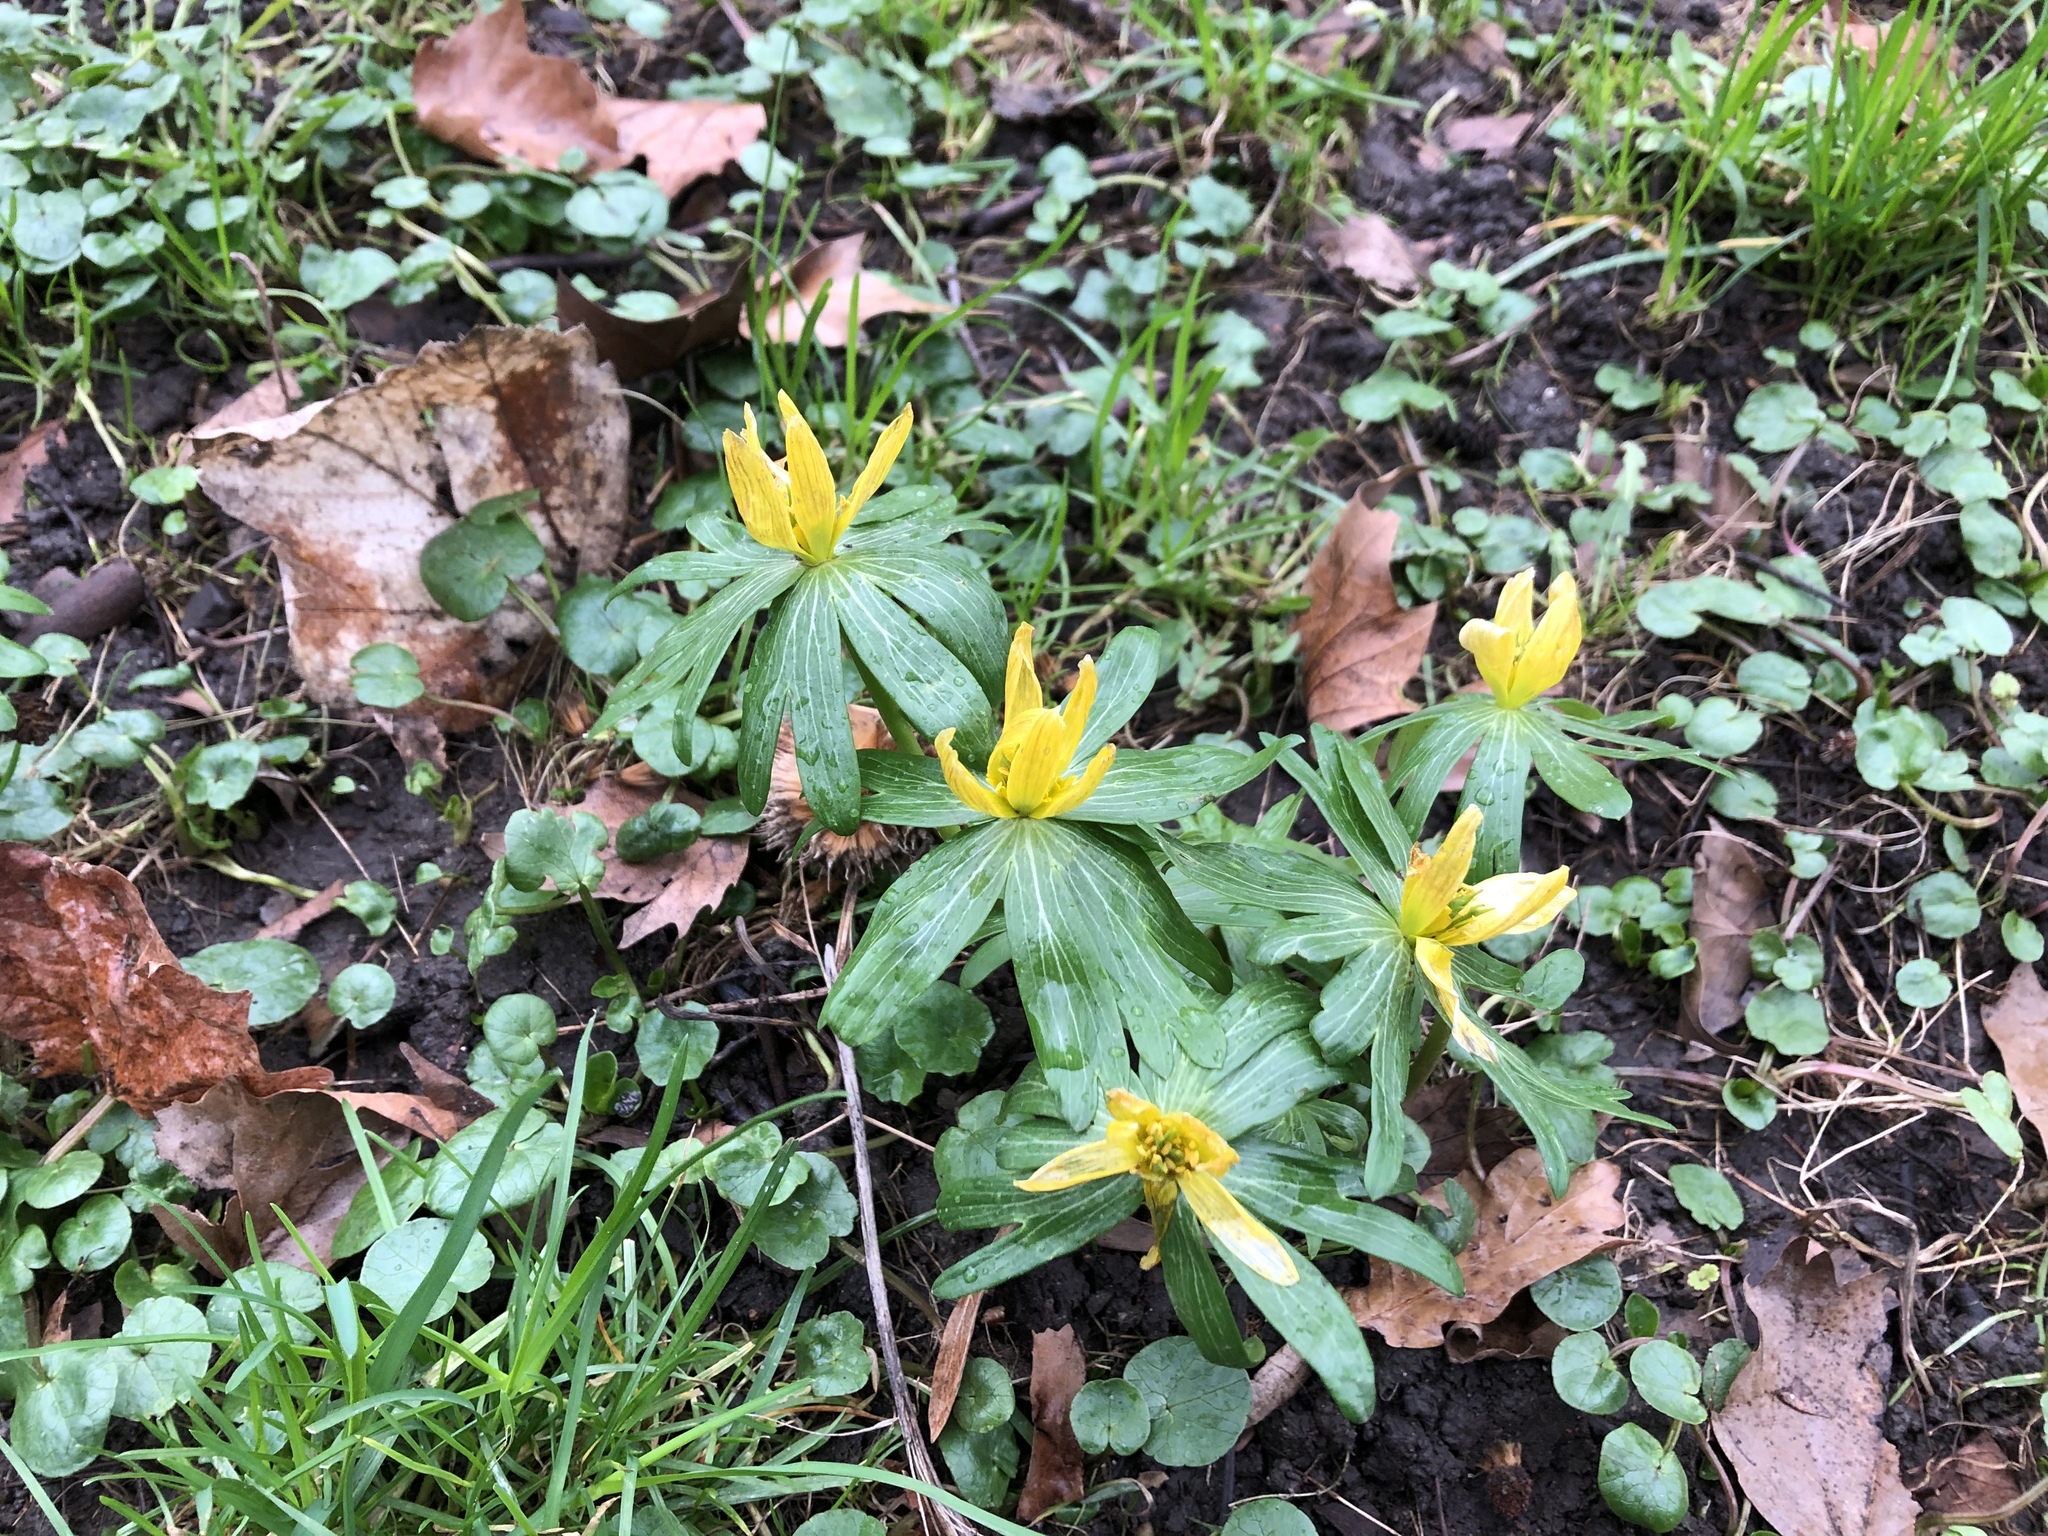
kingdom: Plantae
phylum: Tracheophyta
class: Magnoliopsida
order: Ranunculales
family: Ranunculaceae
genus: Eranthis
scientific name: Eranthis hyemalis
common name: Winter aconite
